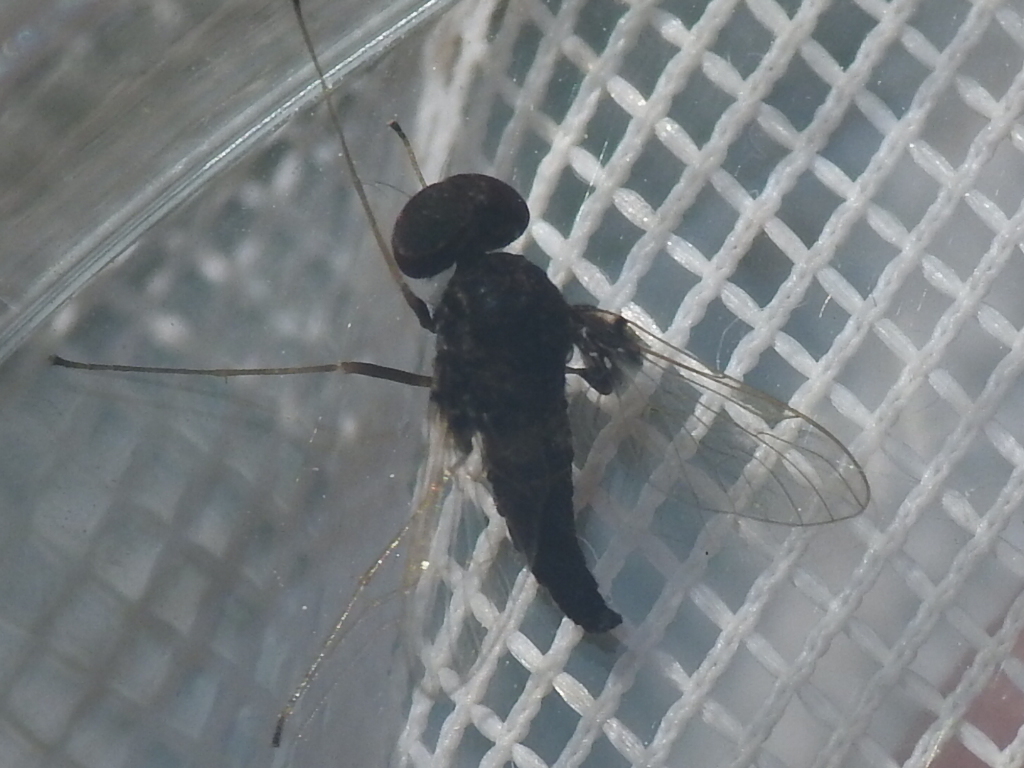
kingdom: Animalia
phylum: Arthropoda
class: Insecta
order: Diptera
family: Rhagionidae
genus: Chrysopilus
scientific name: Chrysopilus basilaris
